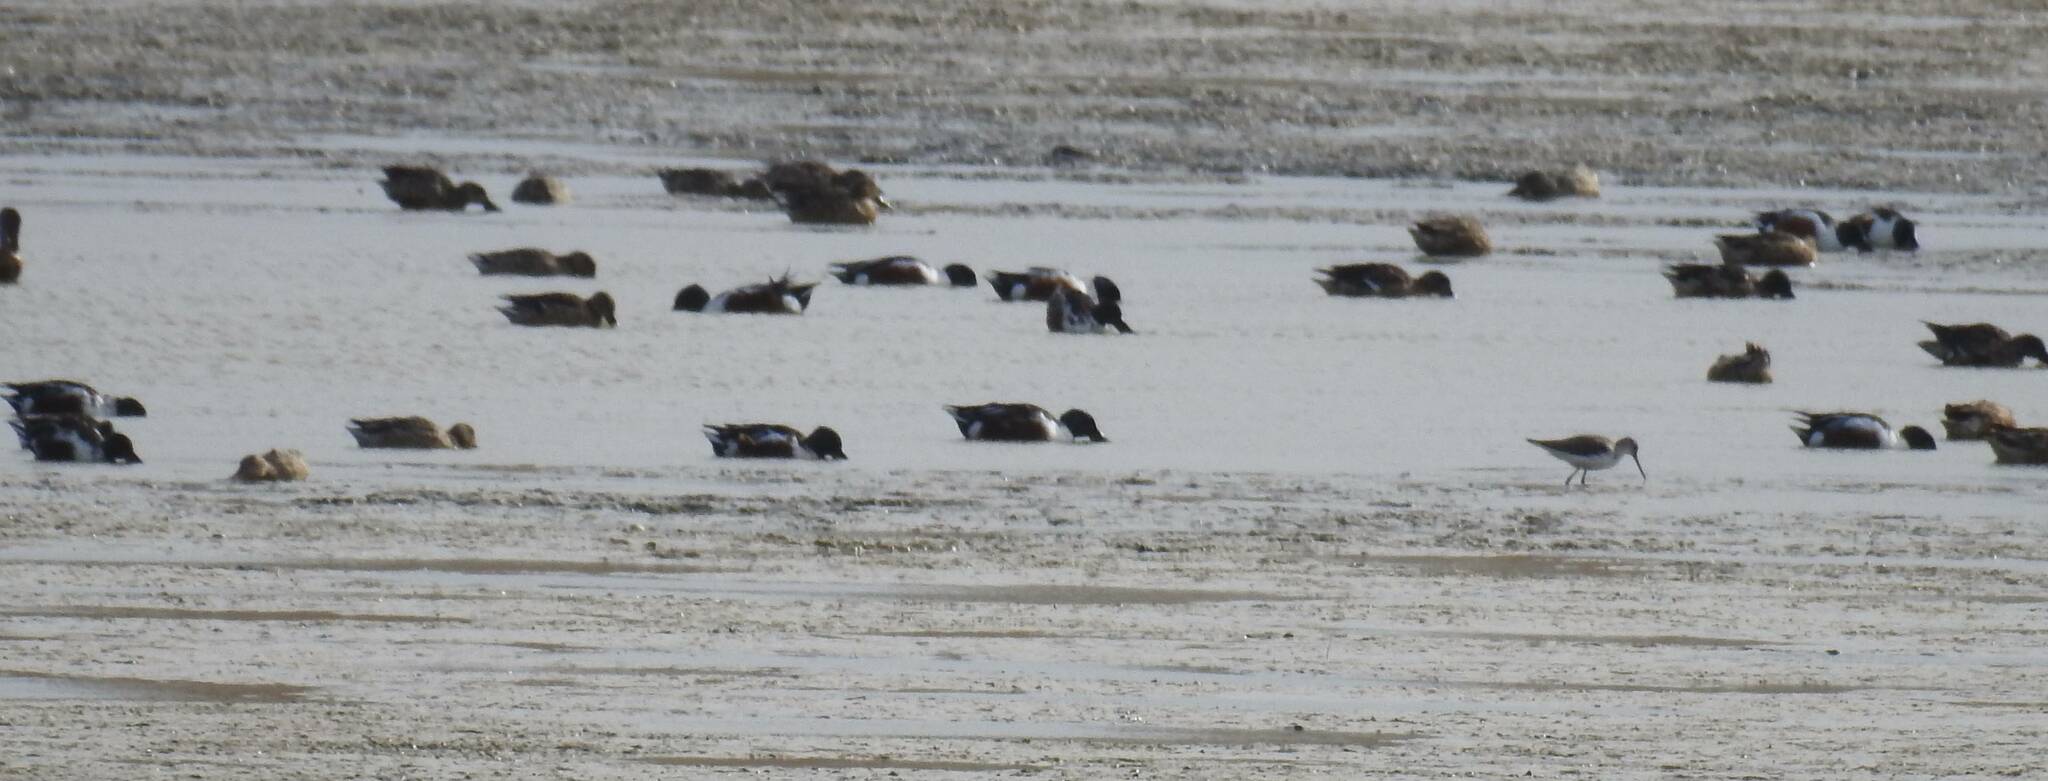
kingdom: Animalia
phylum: Chordata
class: Aves
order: Anseriformes
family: Anatidae
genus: Spatula
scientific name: Spatula clypeata
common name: Northern shoveler
